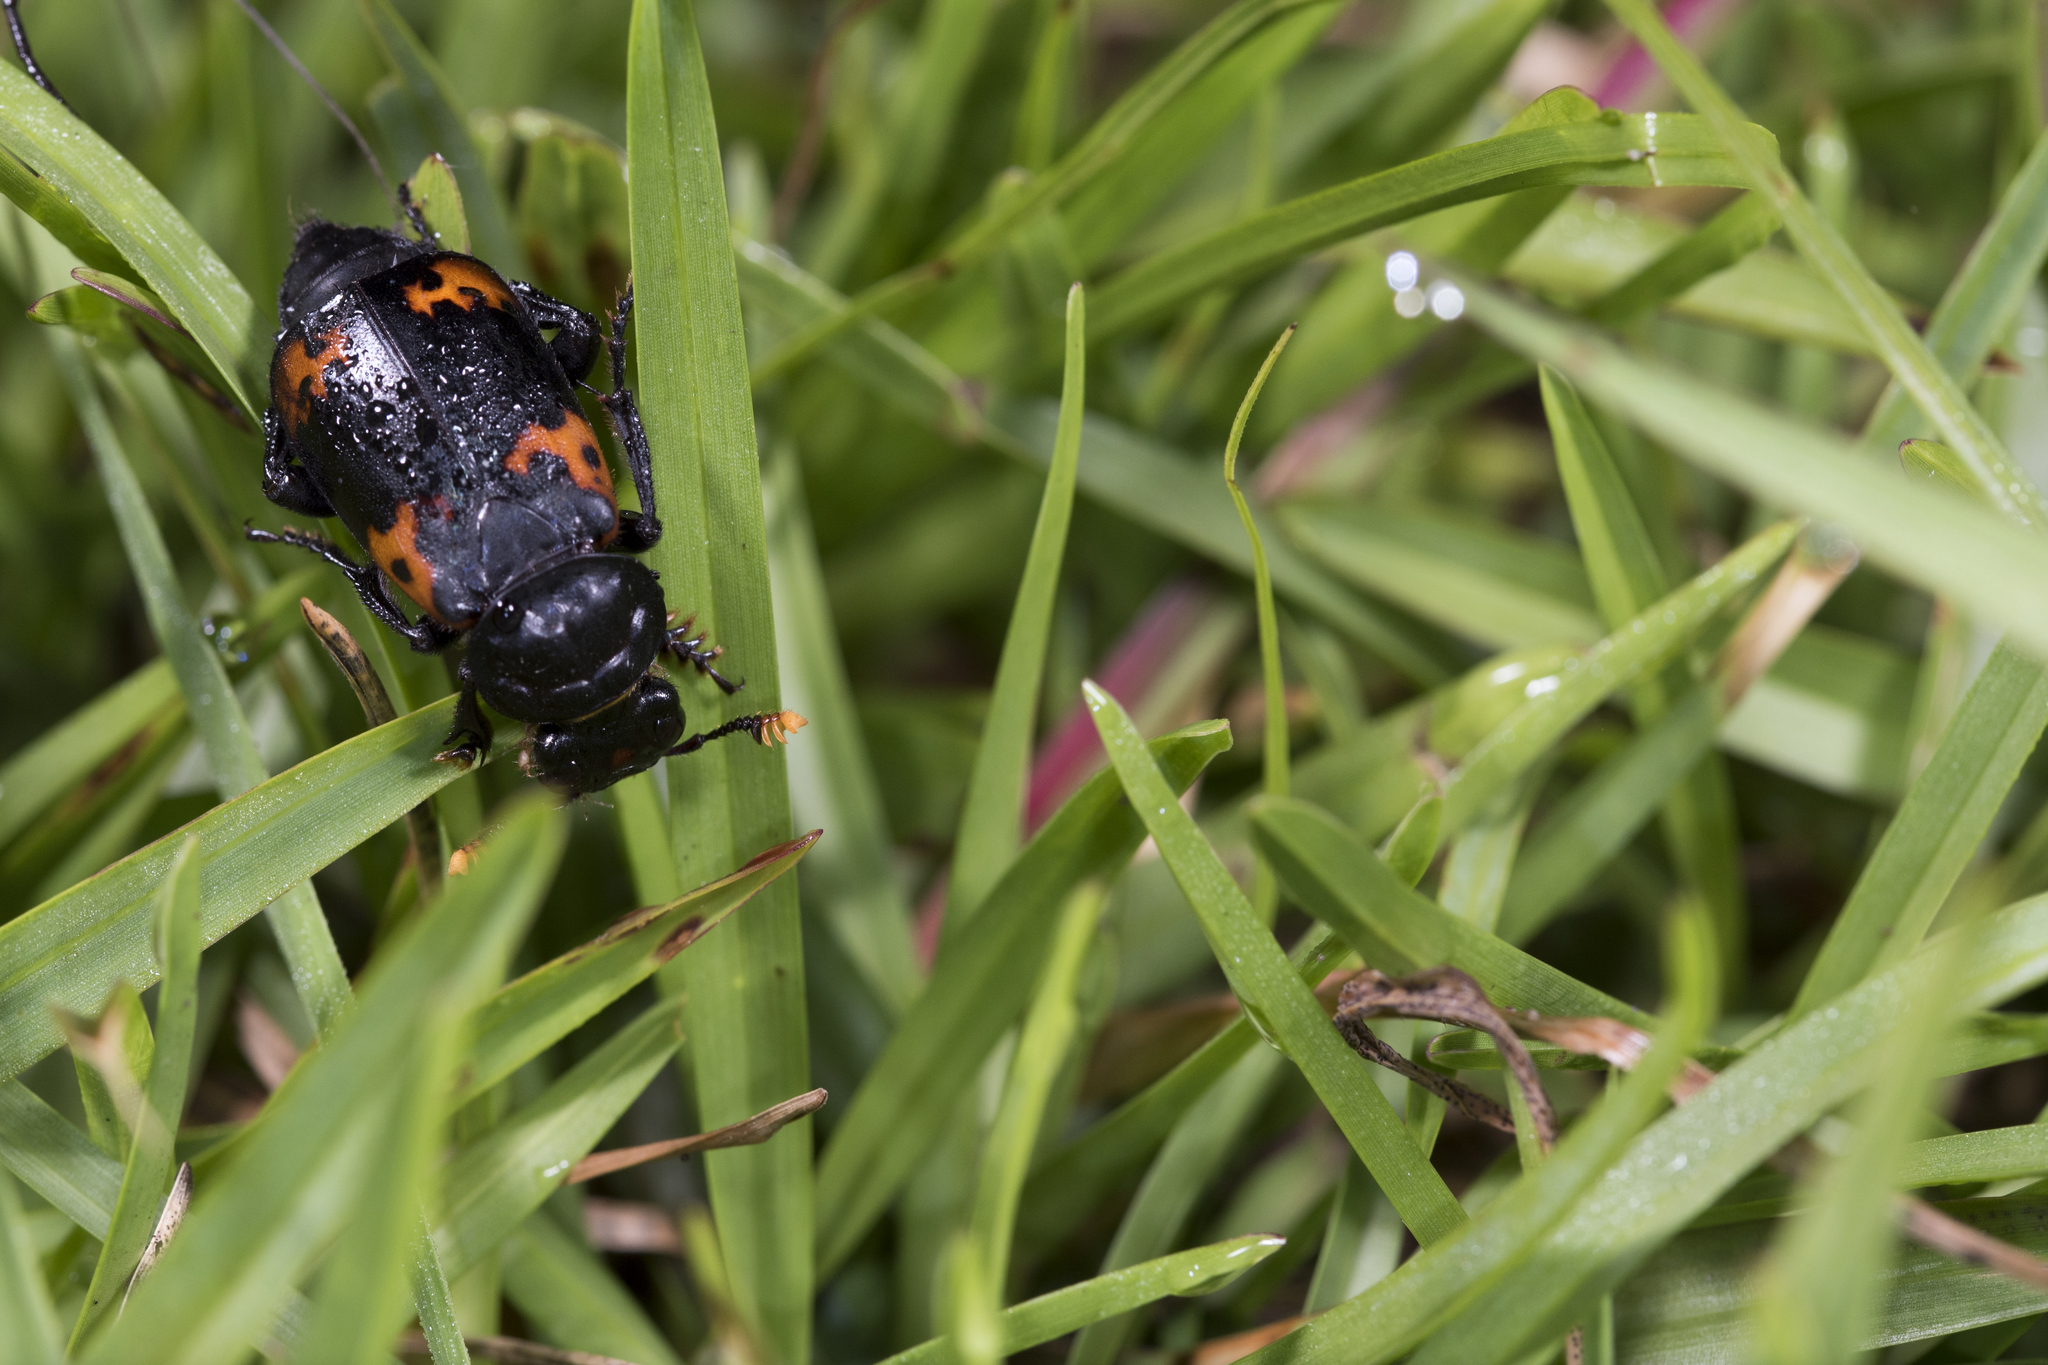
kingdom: Animalia
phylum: Arthropoda
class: Insecta
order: Coleoptera
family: Staphylinidae
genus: Nicrophorus
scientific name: Nicrophorus nepalensis
